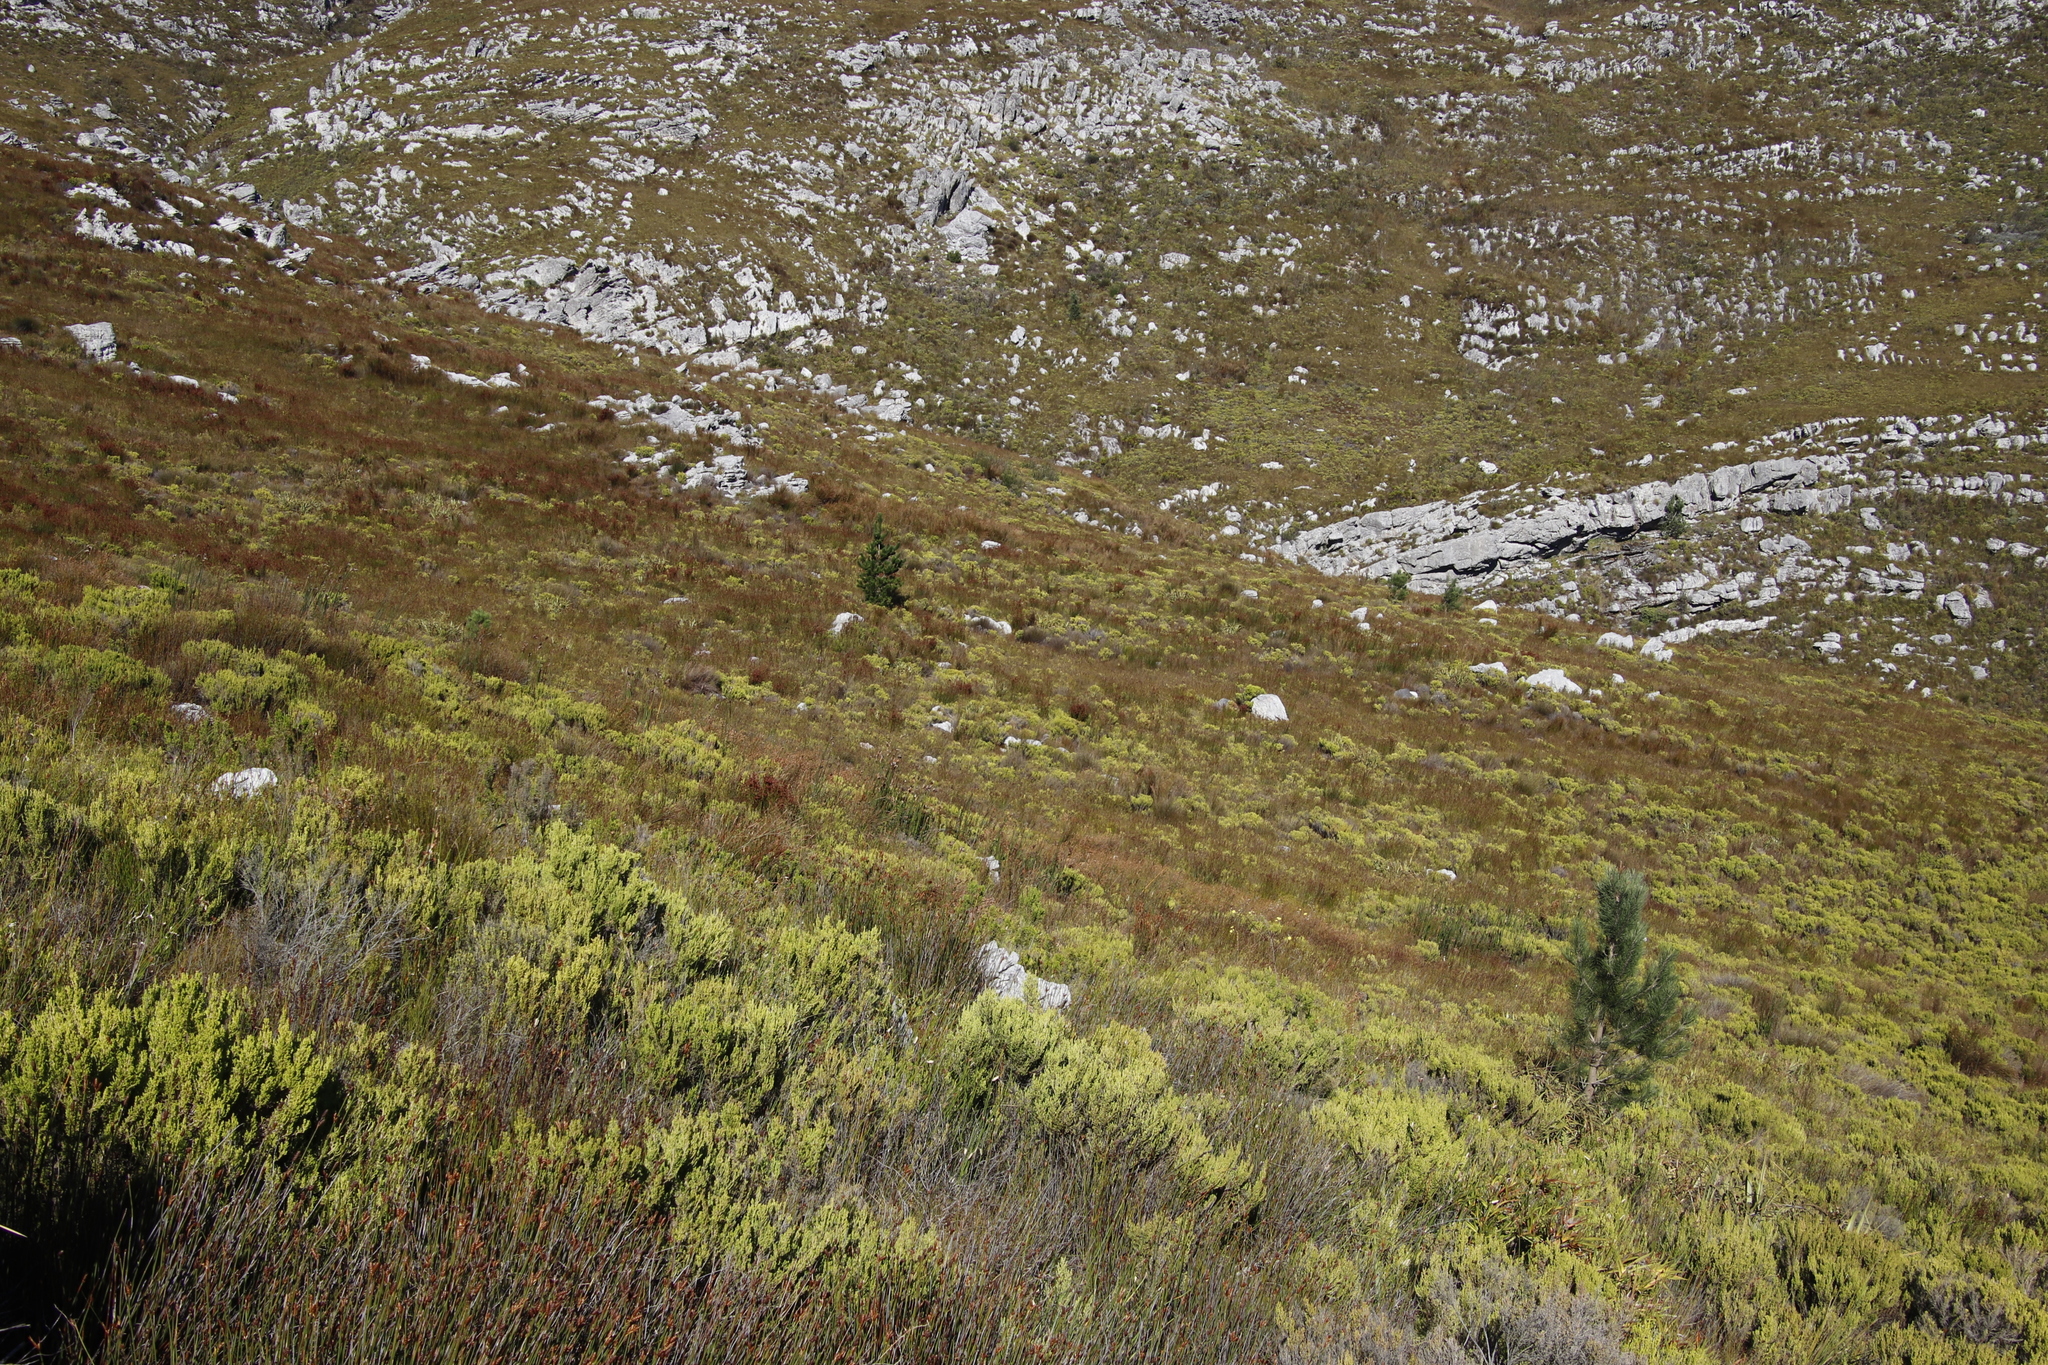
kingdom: Plantae
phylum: Tracheophyta
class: Pinopsida
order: Pinales
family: Pinaceae
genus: Pinus
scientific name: Pinus pinaster
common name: Maritime pine
